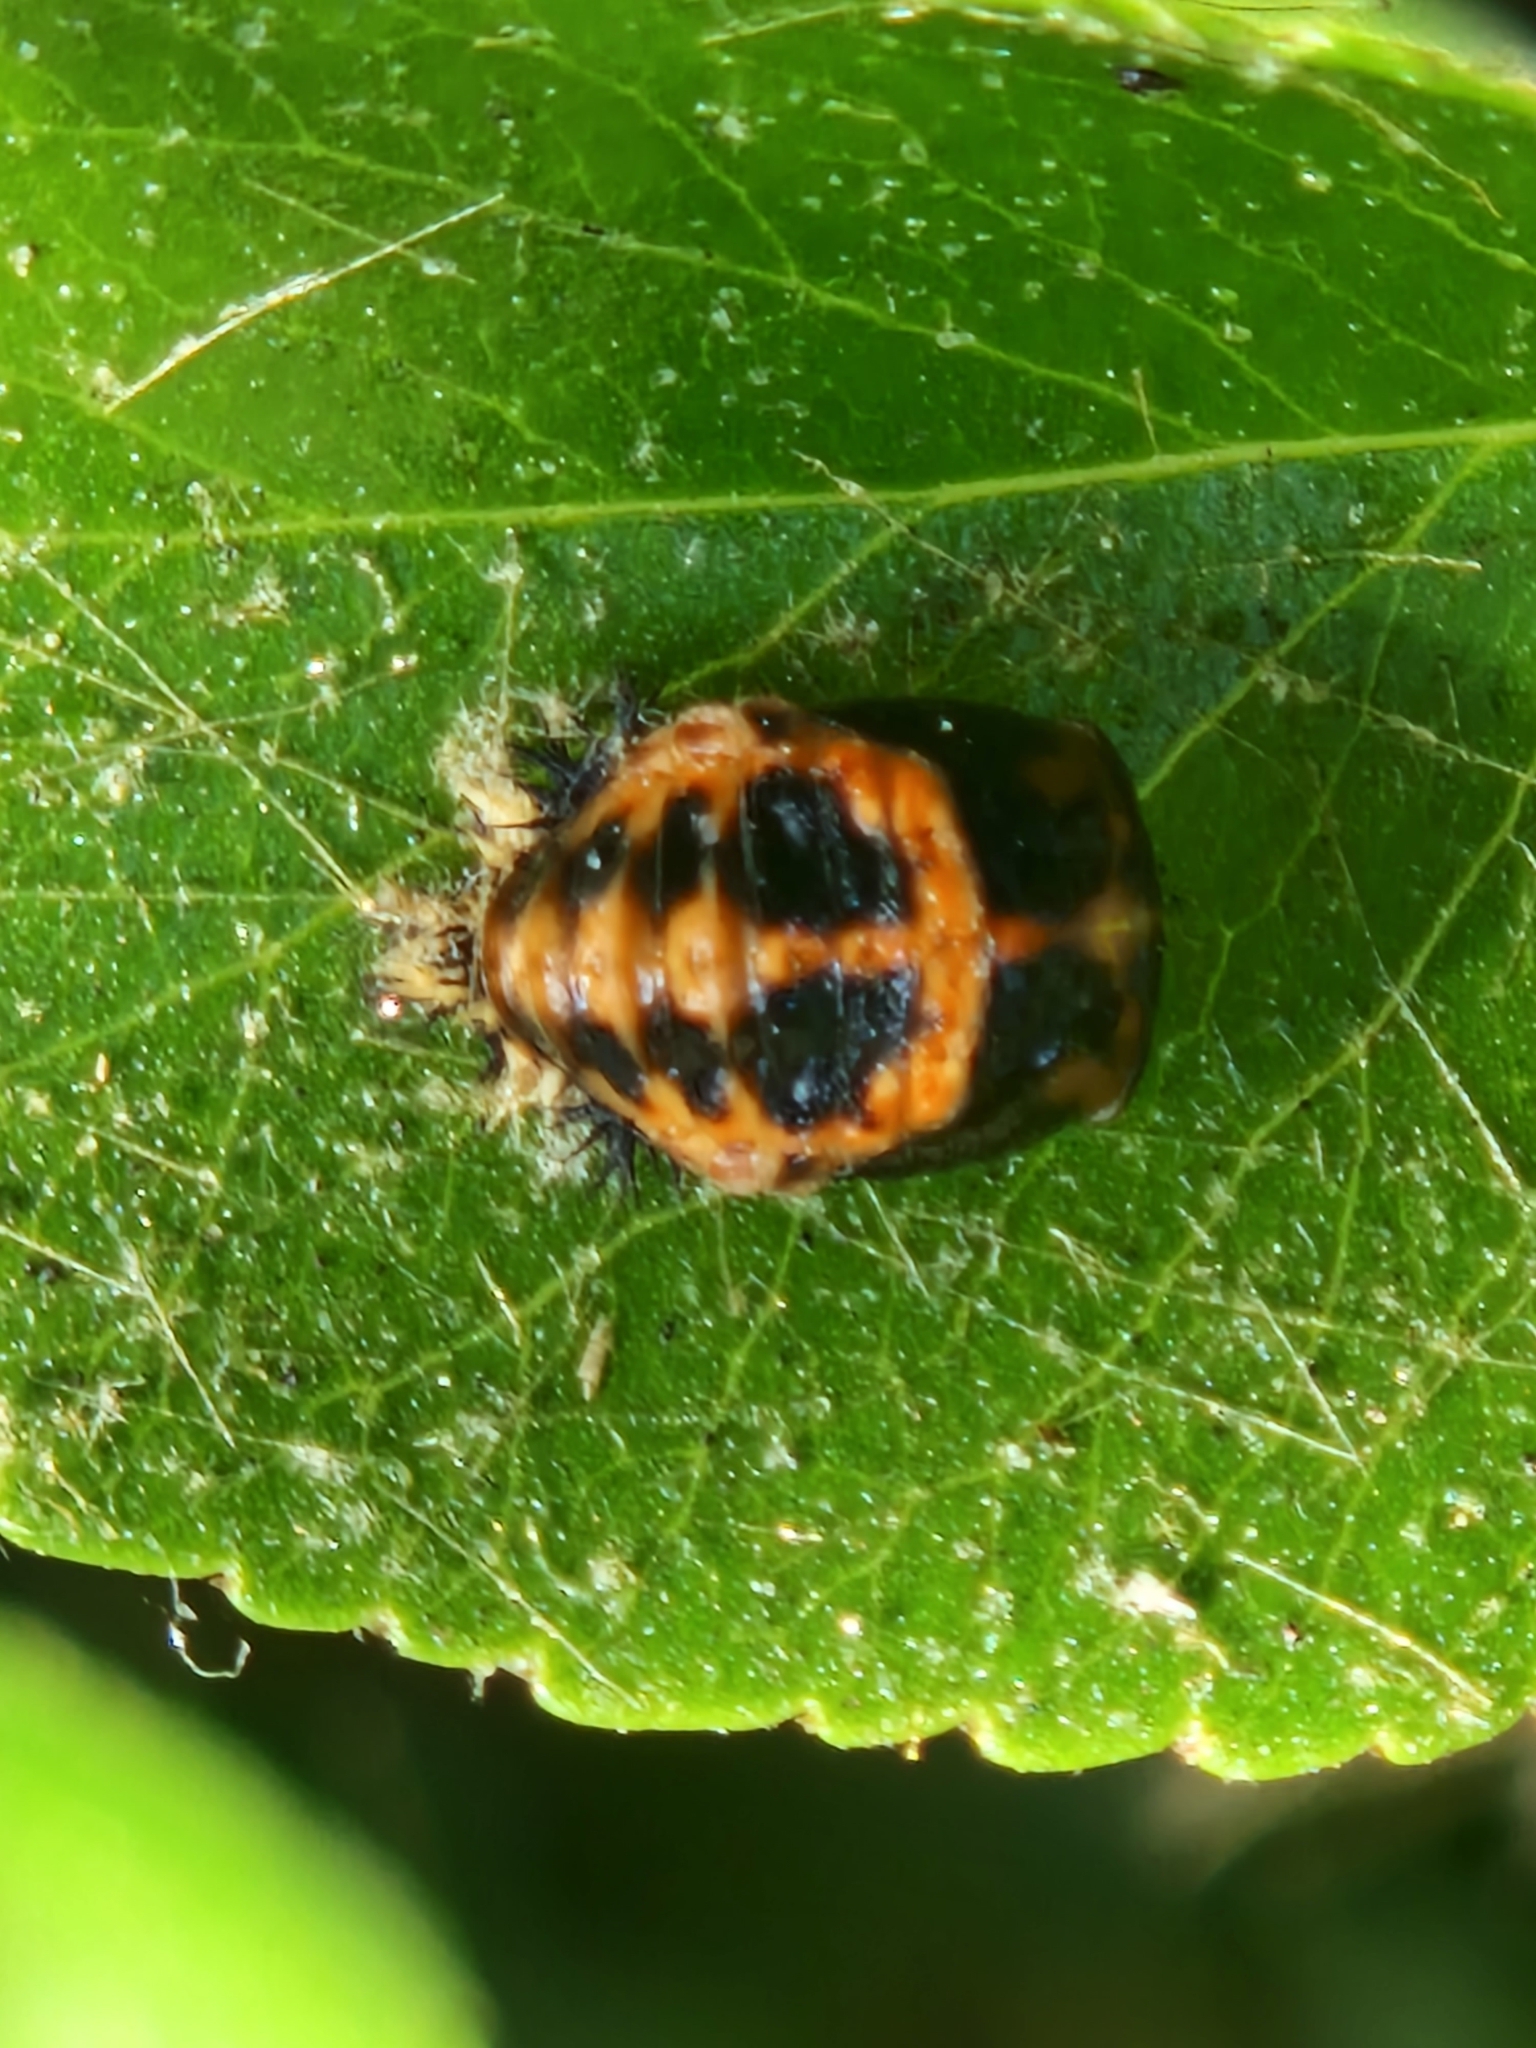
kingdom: Animalia
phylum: Arthropoda
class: Insecta
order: Coleoptera
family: Coccinellidae
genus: Harmonia
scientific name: Harmonia axyridis
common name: Harlequin ladybird
